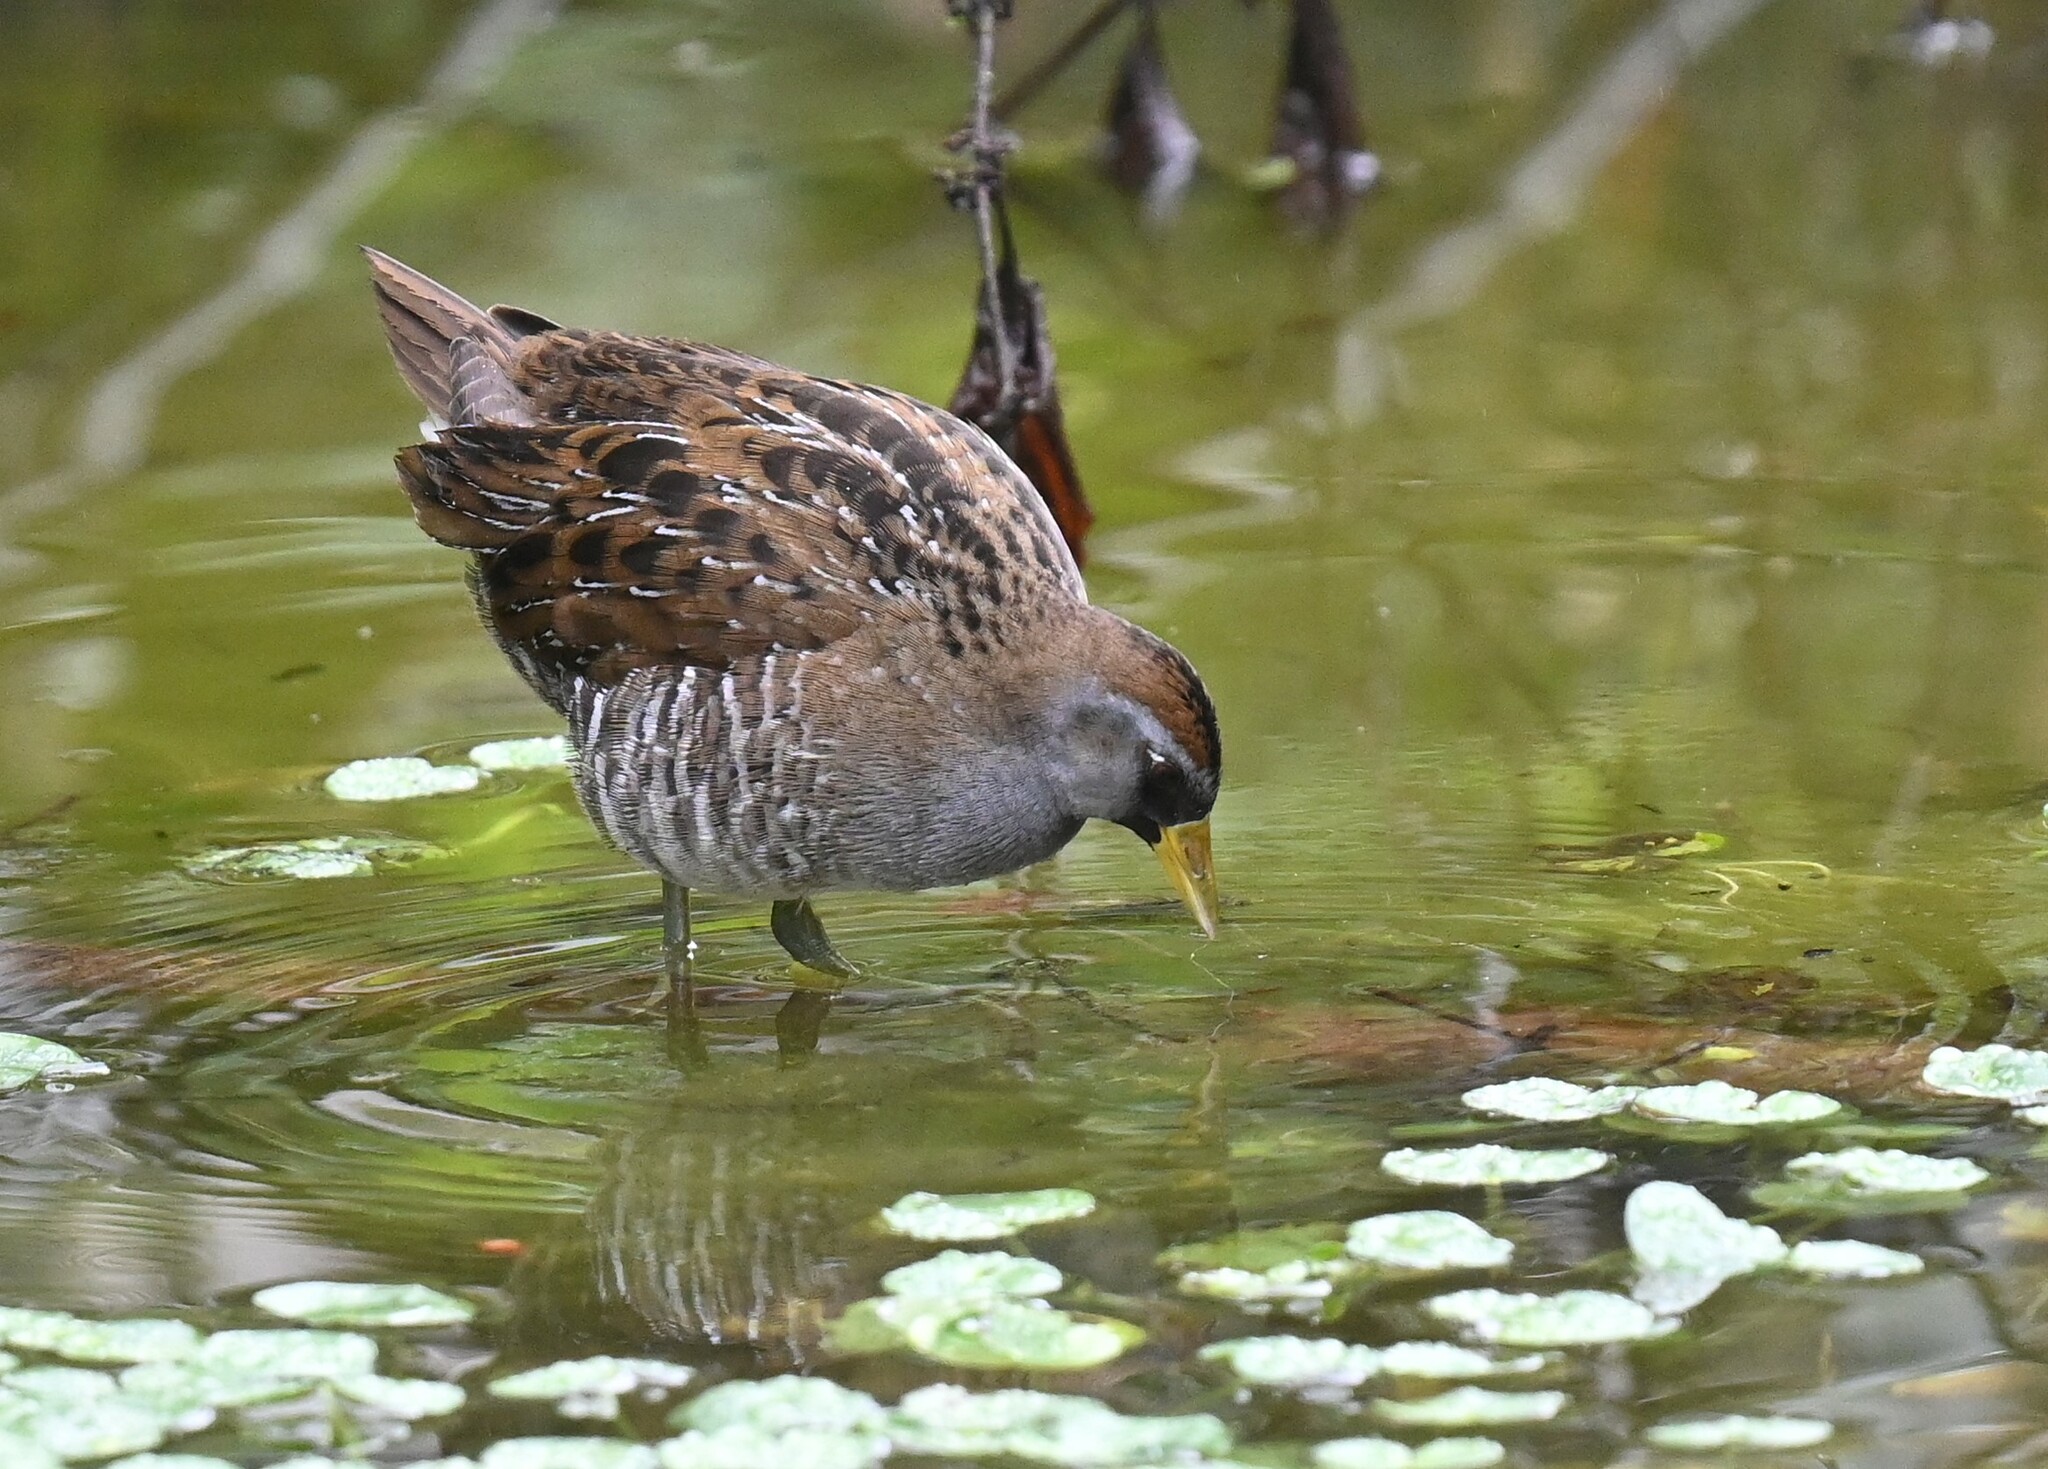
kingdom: Animalia
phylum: Chordata
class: Aves
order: Gruiformes
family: Rallidae
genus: Porzana
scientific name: Porzana carolina
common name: Sora
